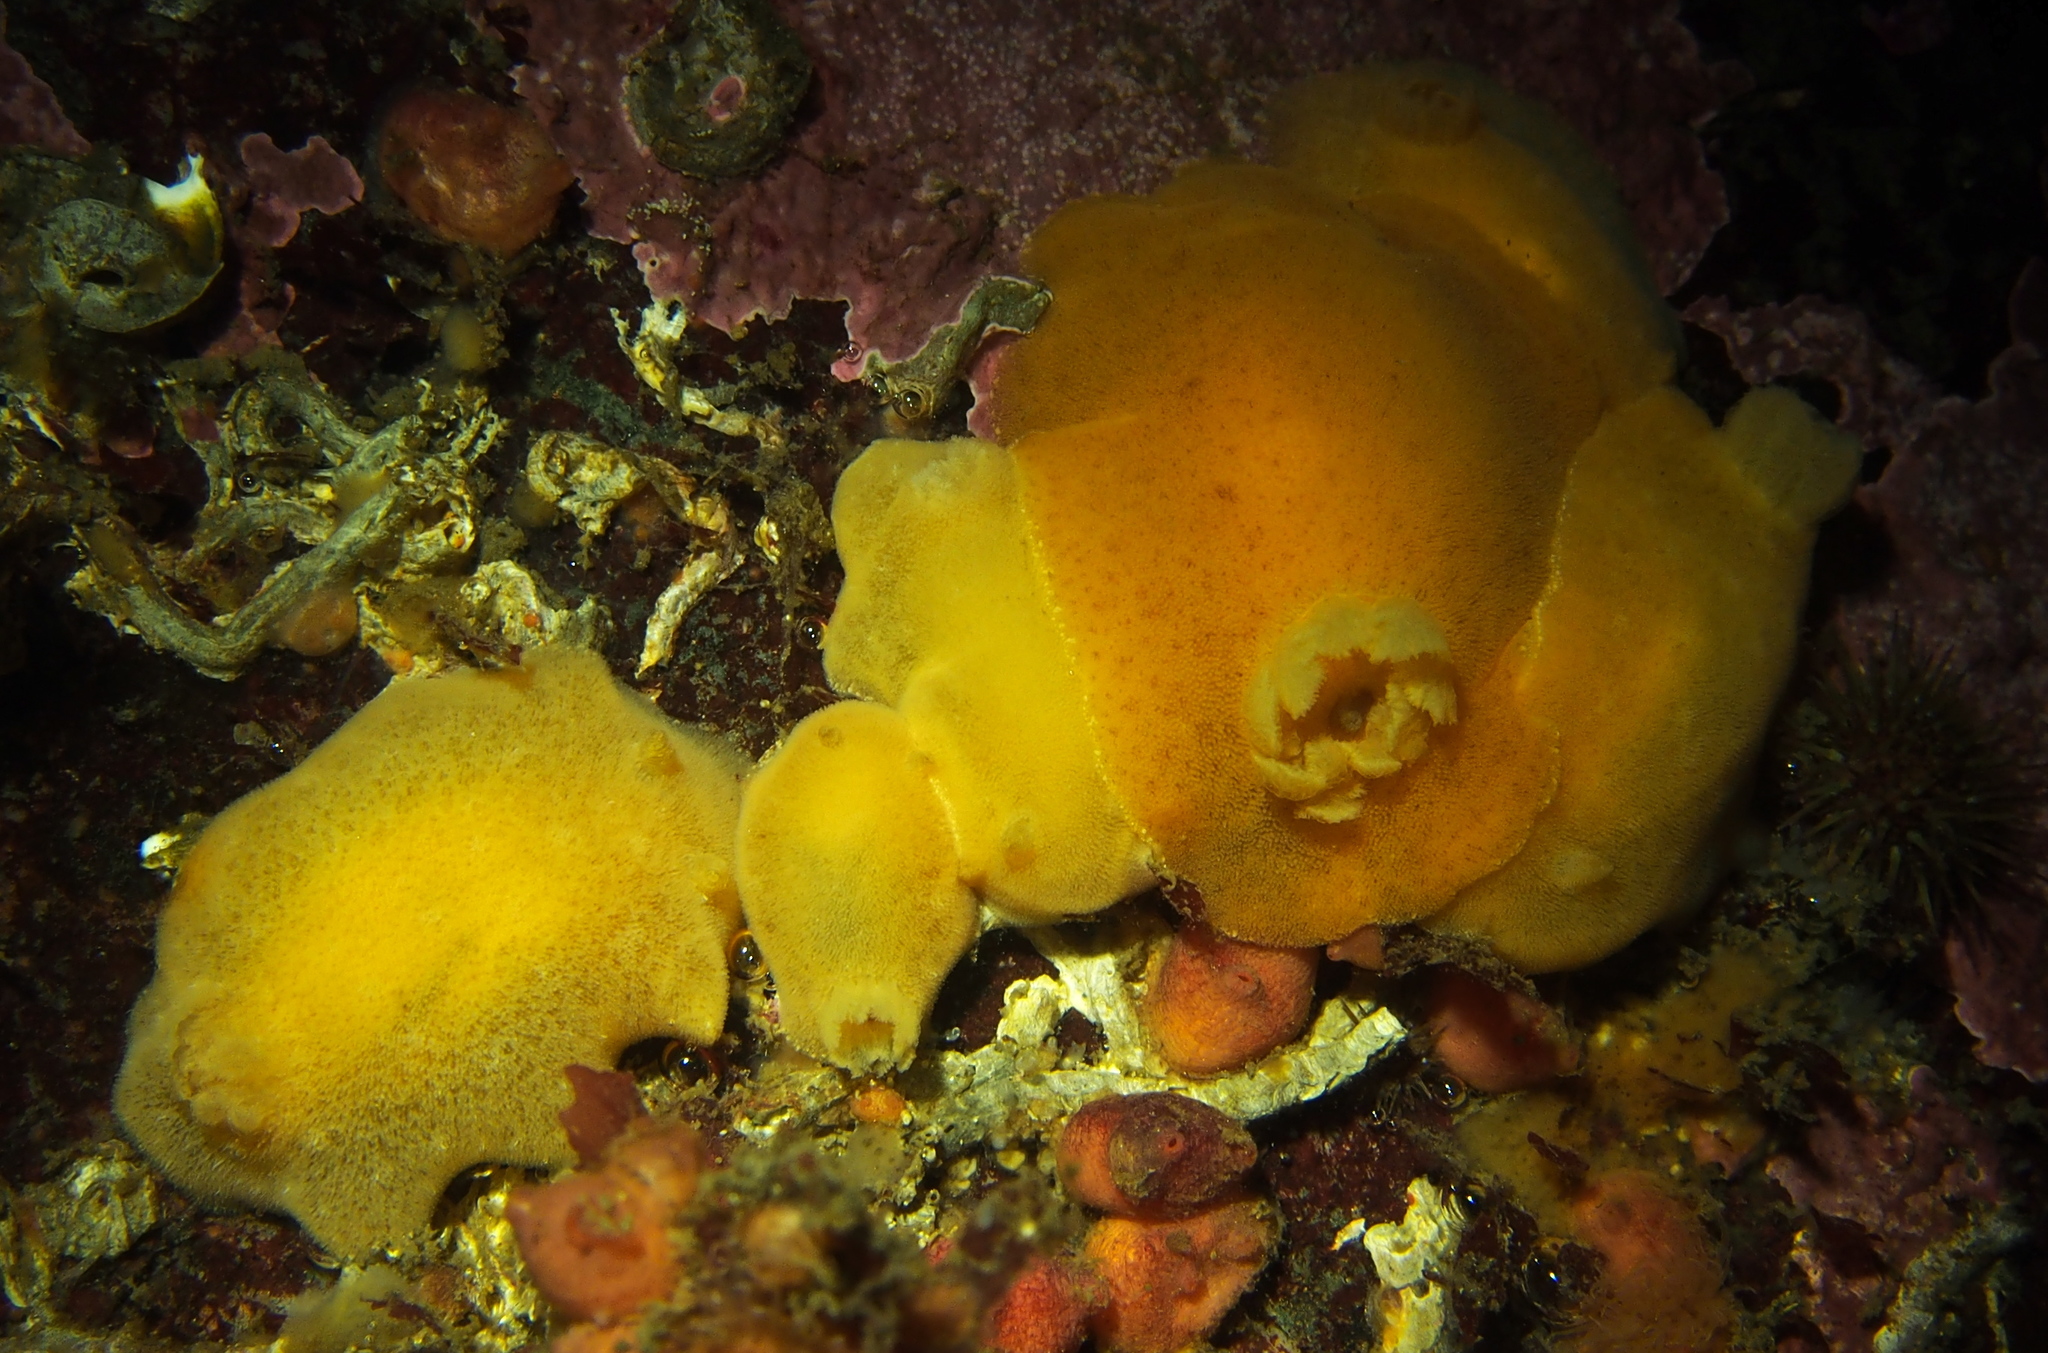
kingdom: Animalia
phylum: Mollusca
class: Gastropoda
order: Nudibranchia
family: Discodorididae
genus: Jorunna
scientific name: Jorunna tomentosa
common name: Grey sea slug
